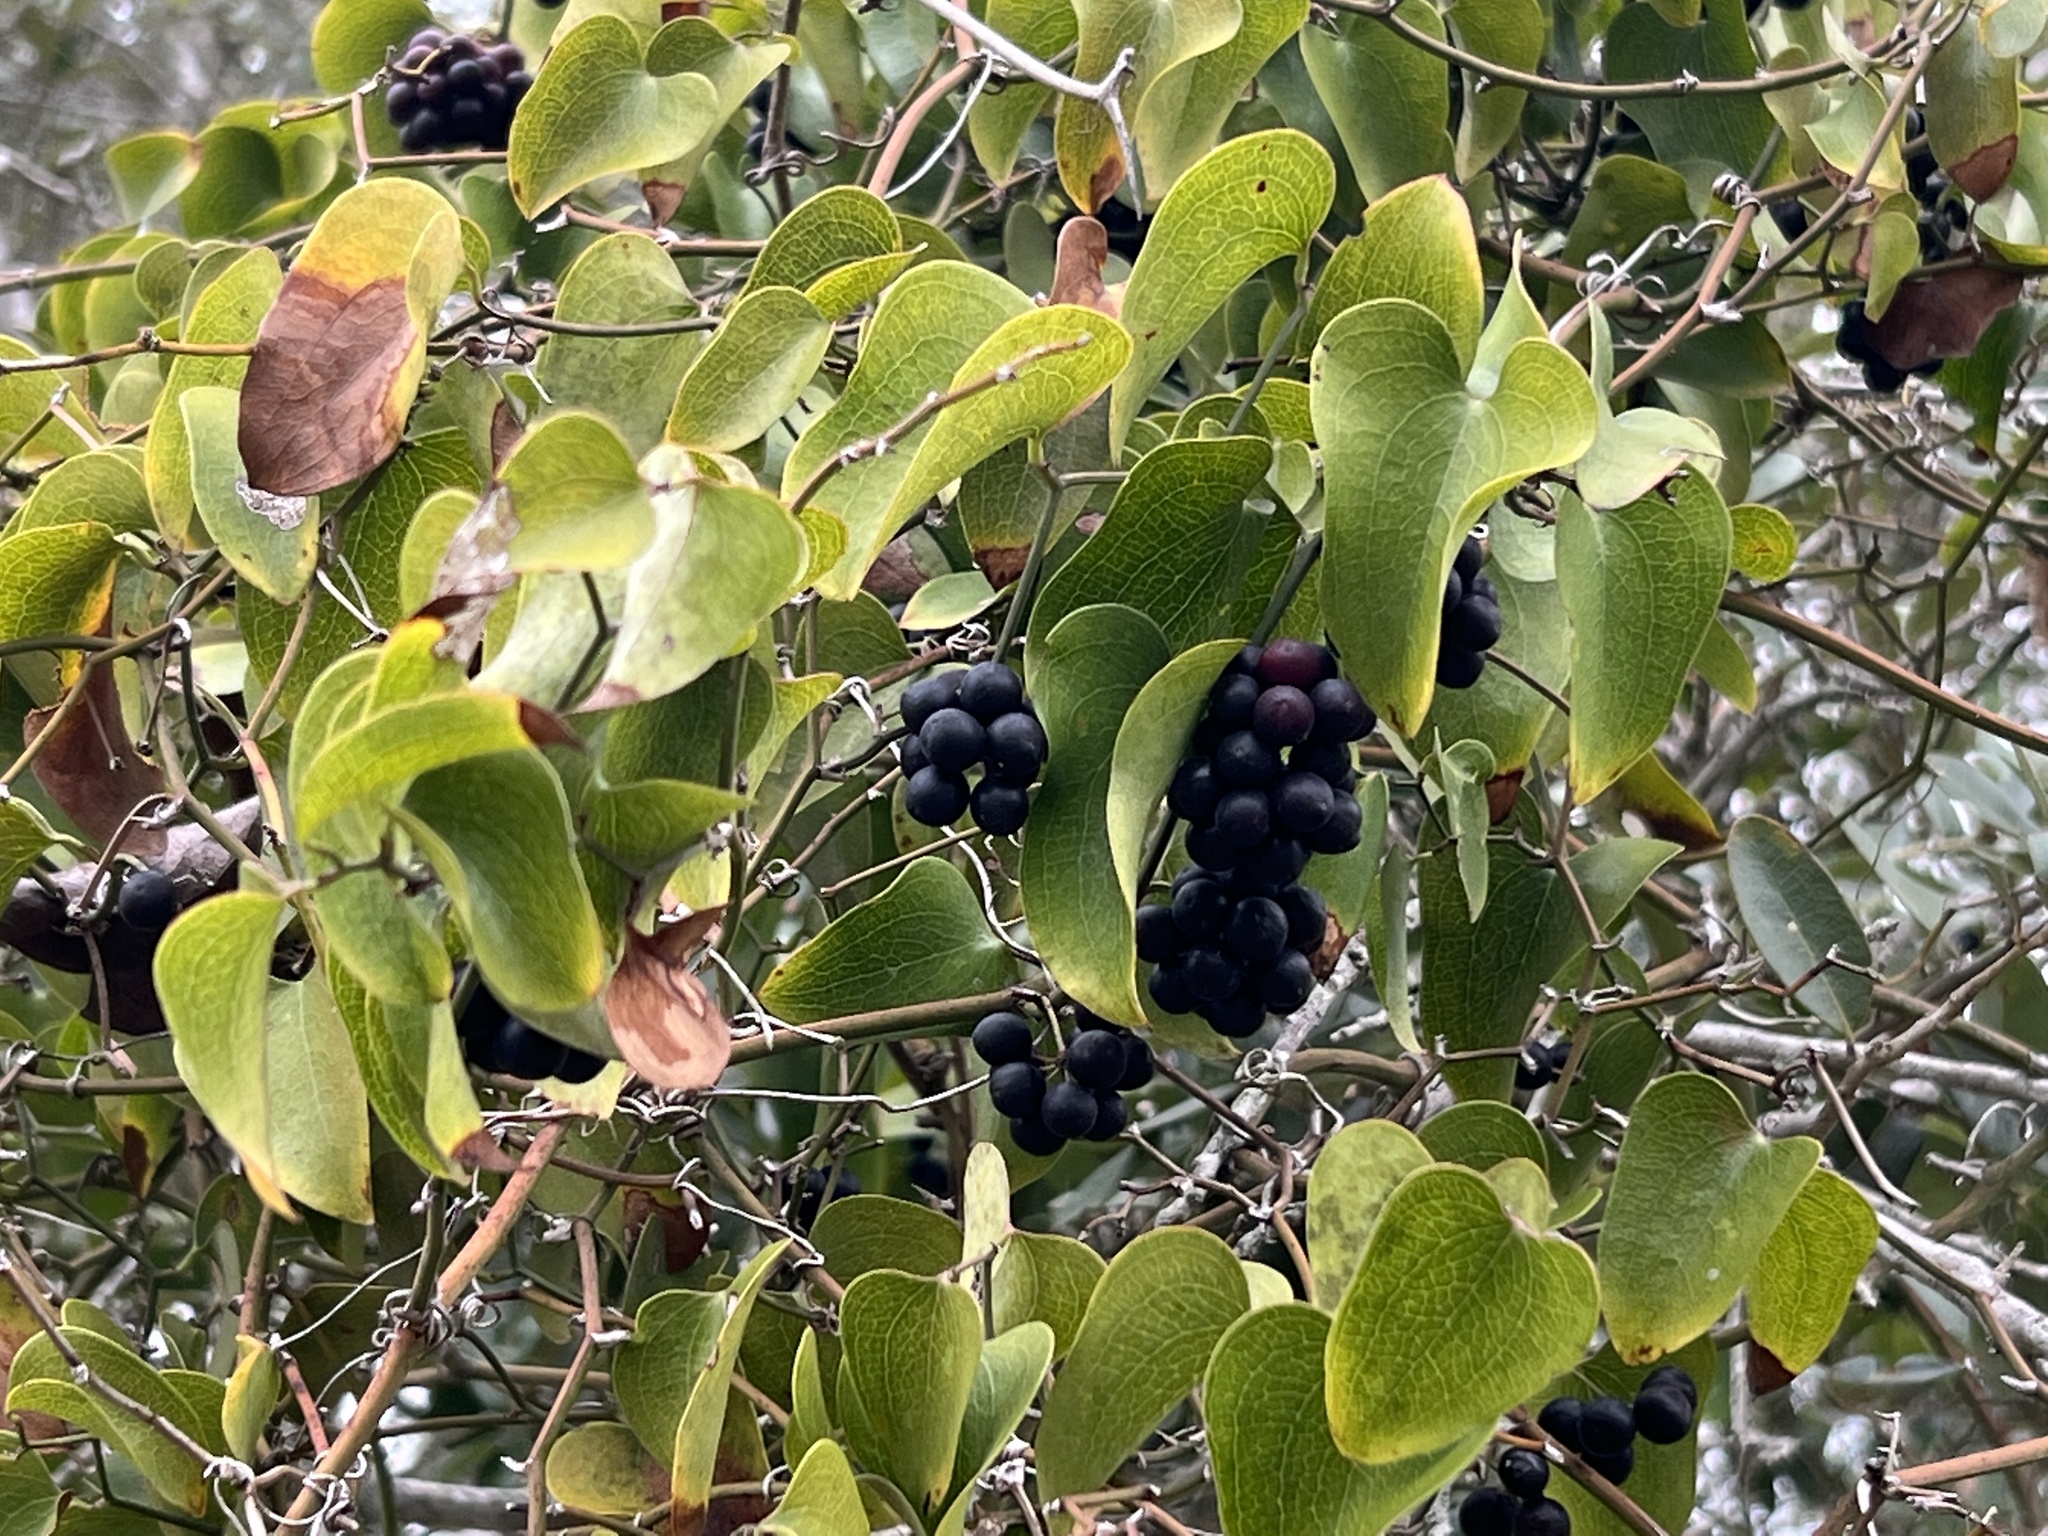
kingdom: Plantae
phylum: Tracheophyta
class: Liliopsida
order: Liliales
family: Smilacaceae
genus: Smilax
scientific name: Smilax bona-nox
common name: Catbrier
